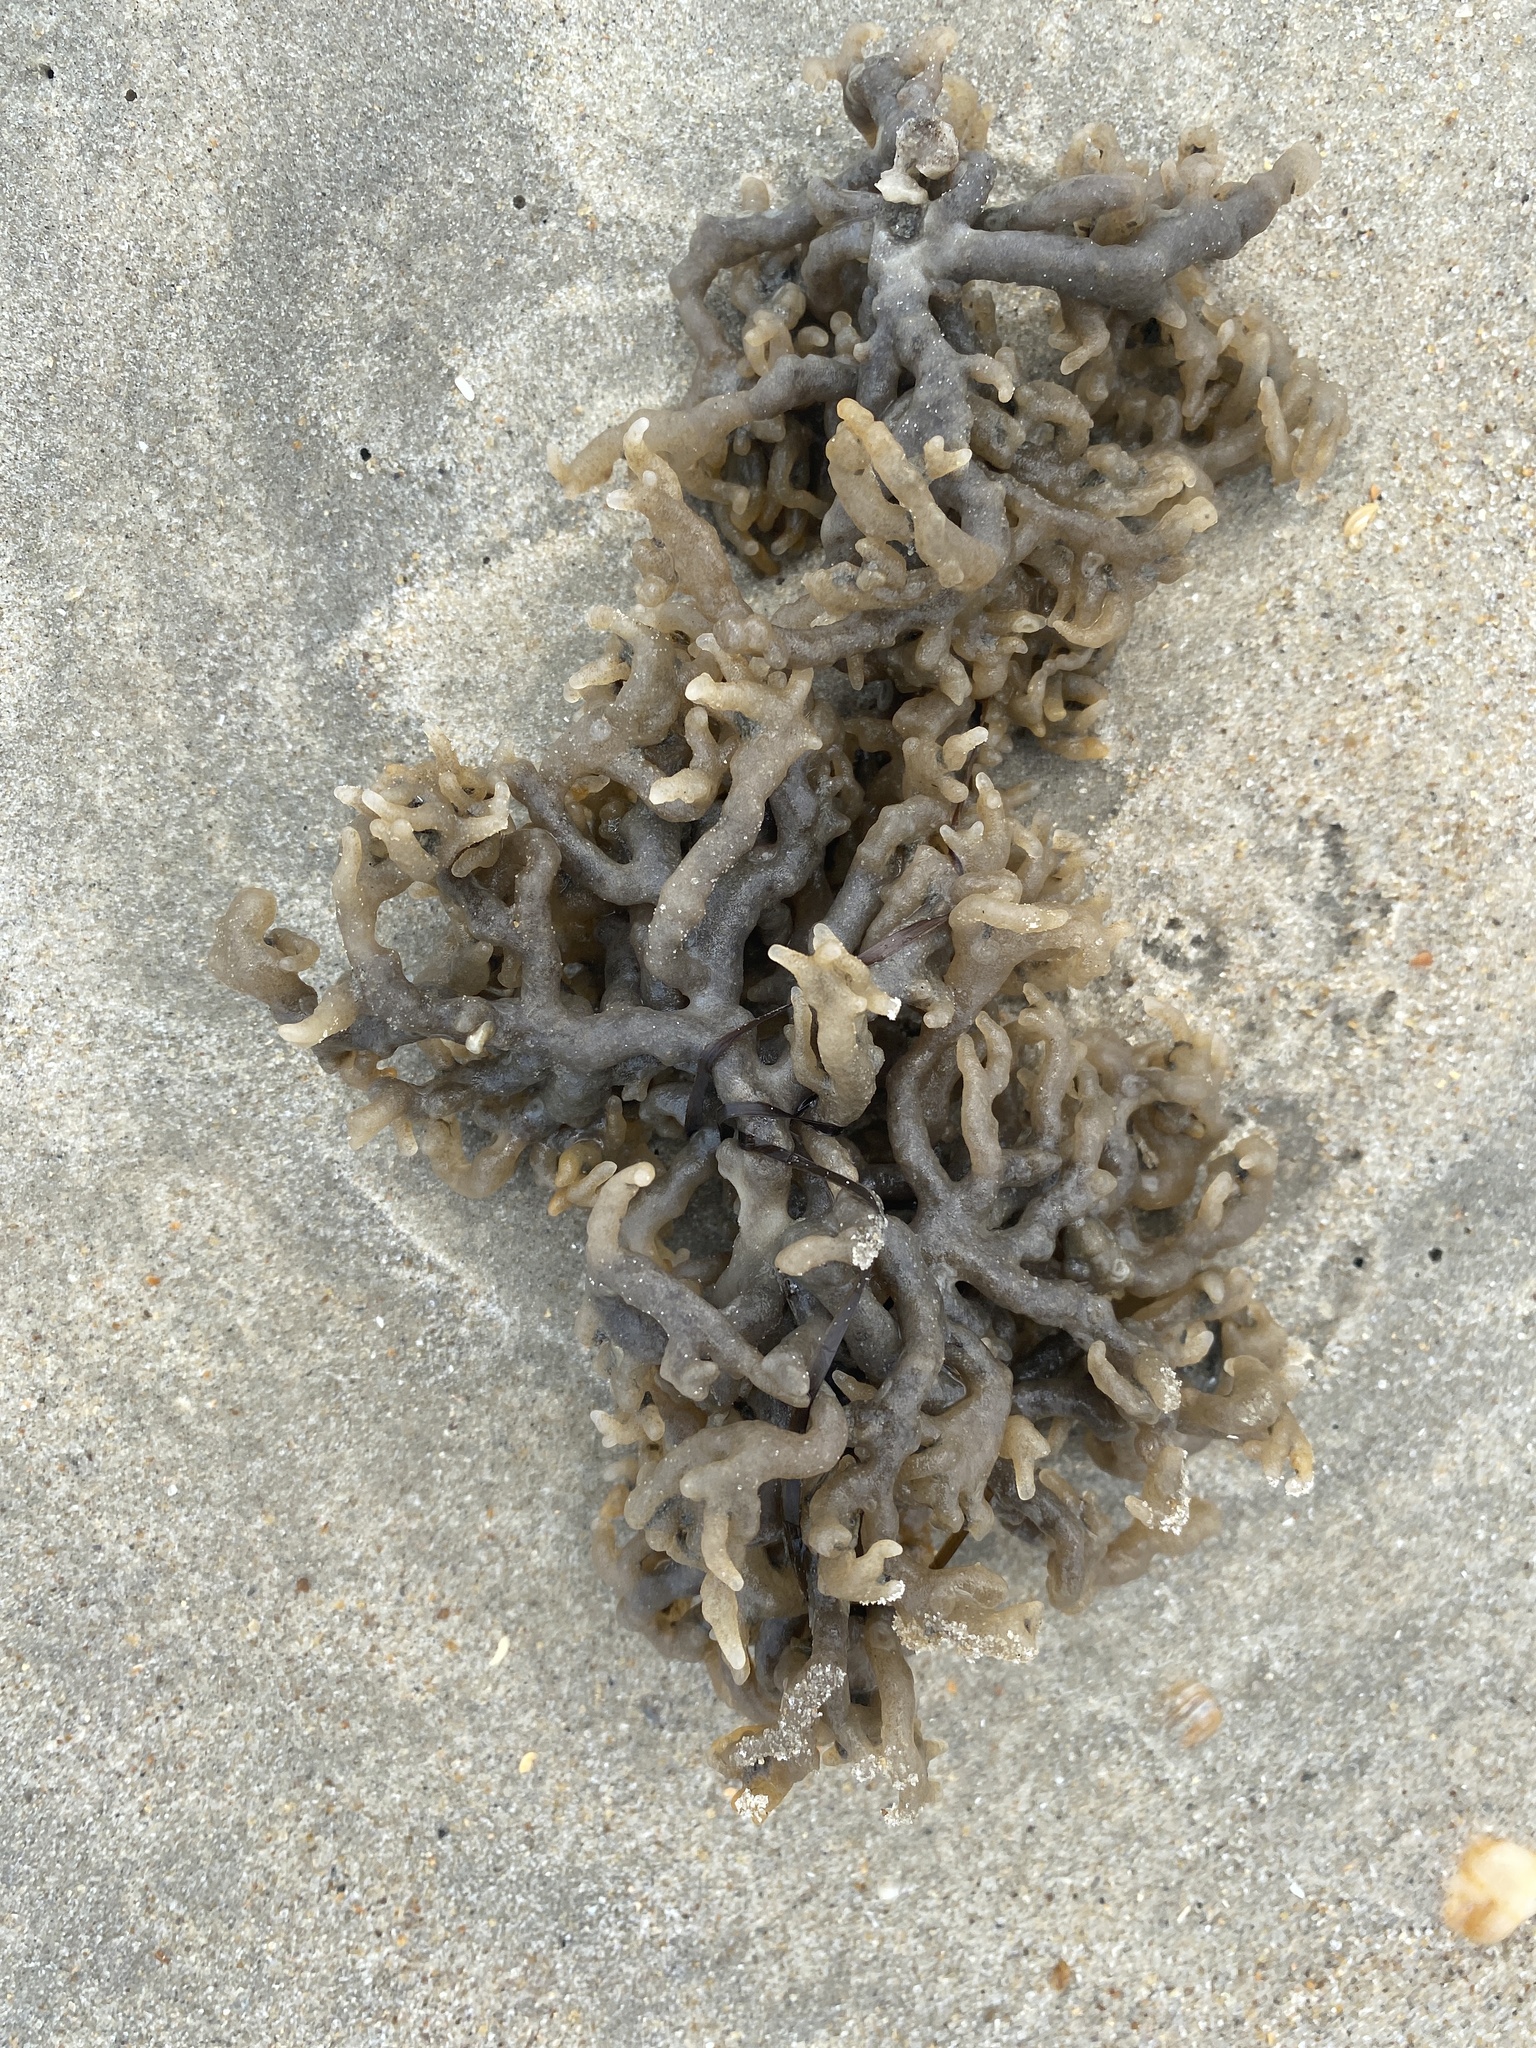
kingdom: Animalia
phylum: Bryozoa
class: Gymnolaemata
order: Ctenostomatida
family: Alcyonidiidae
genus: Alcyonidium
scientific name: Alcyonidium hauffi
